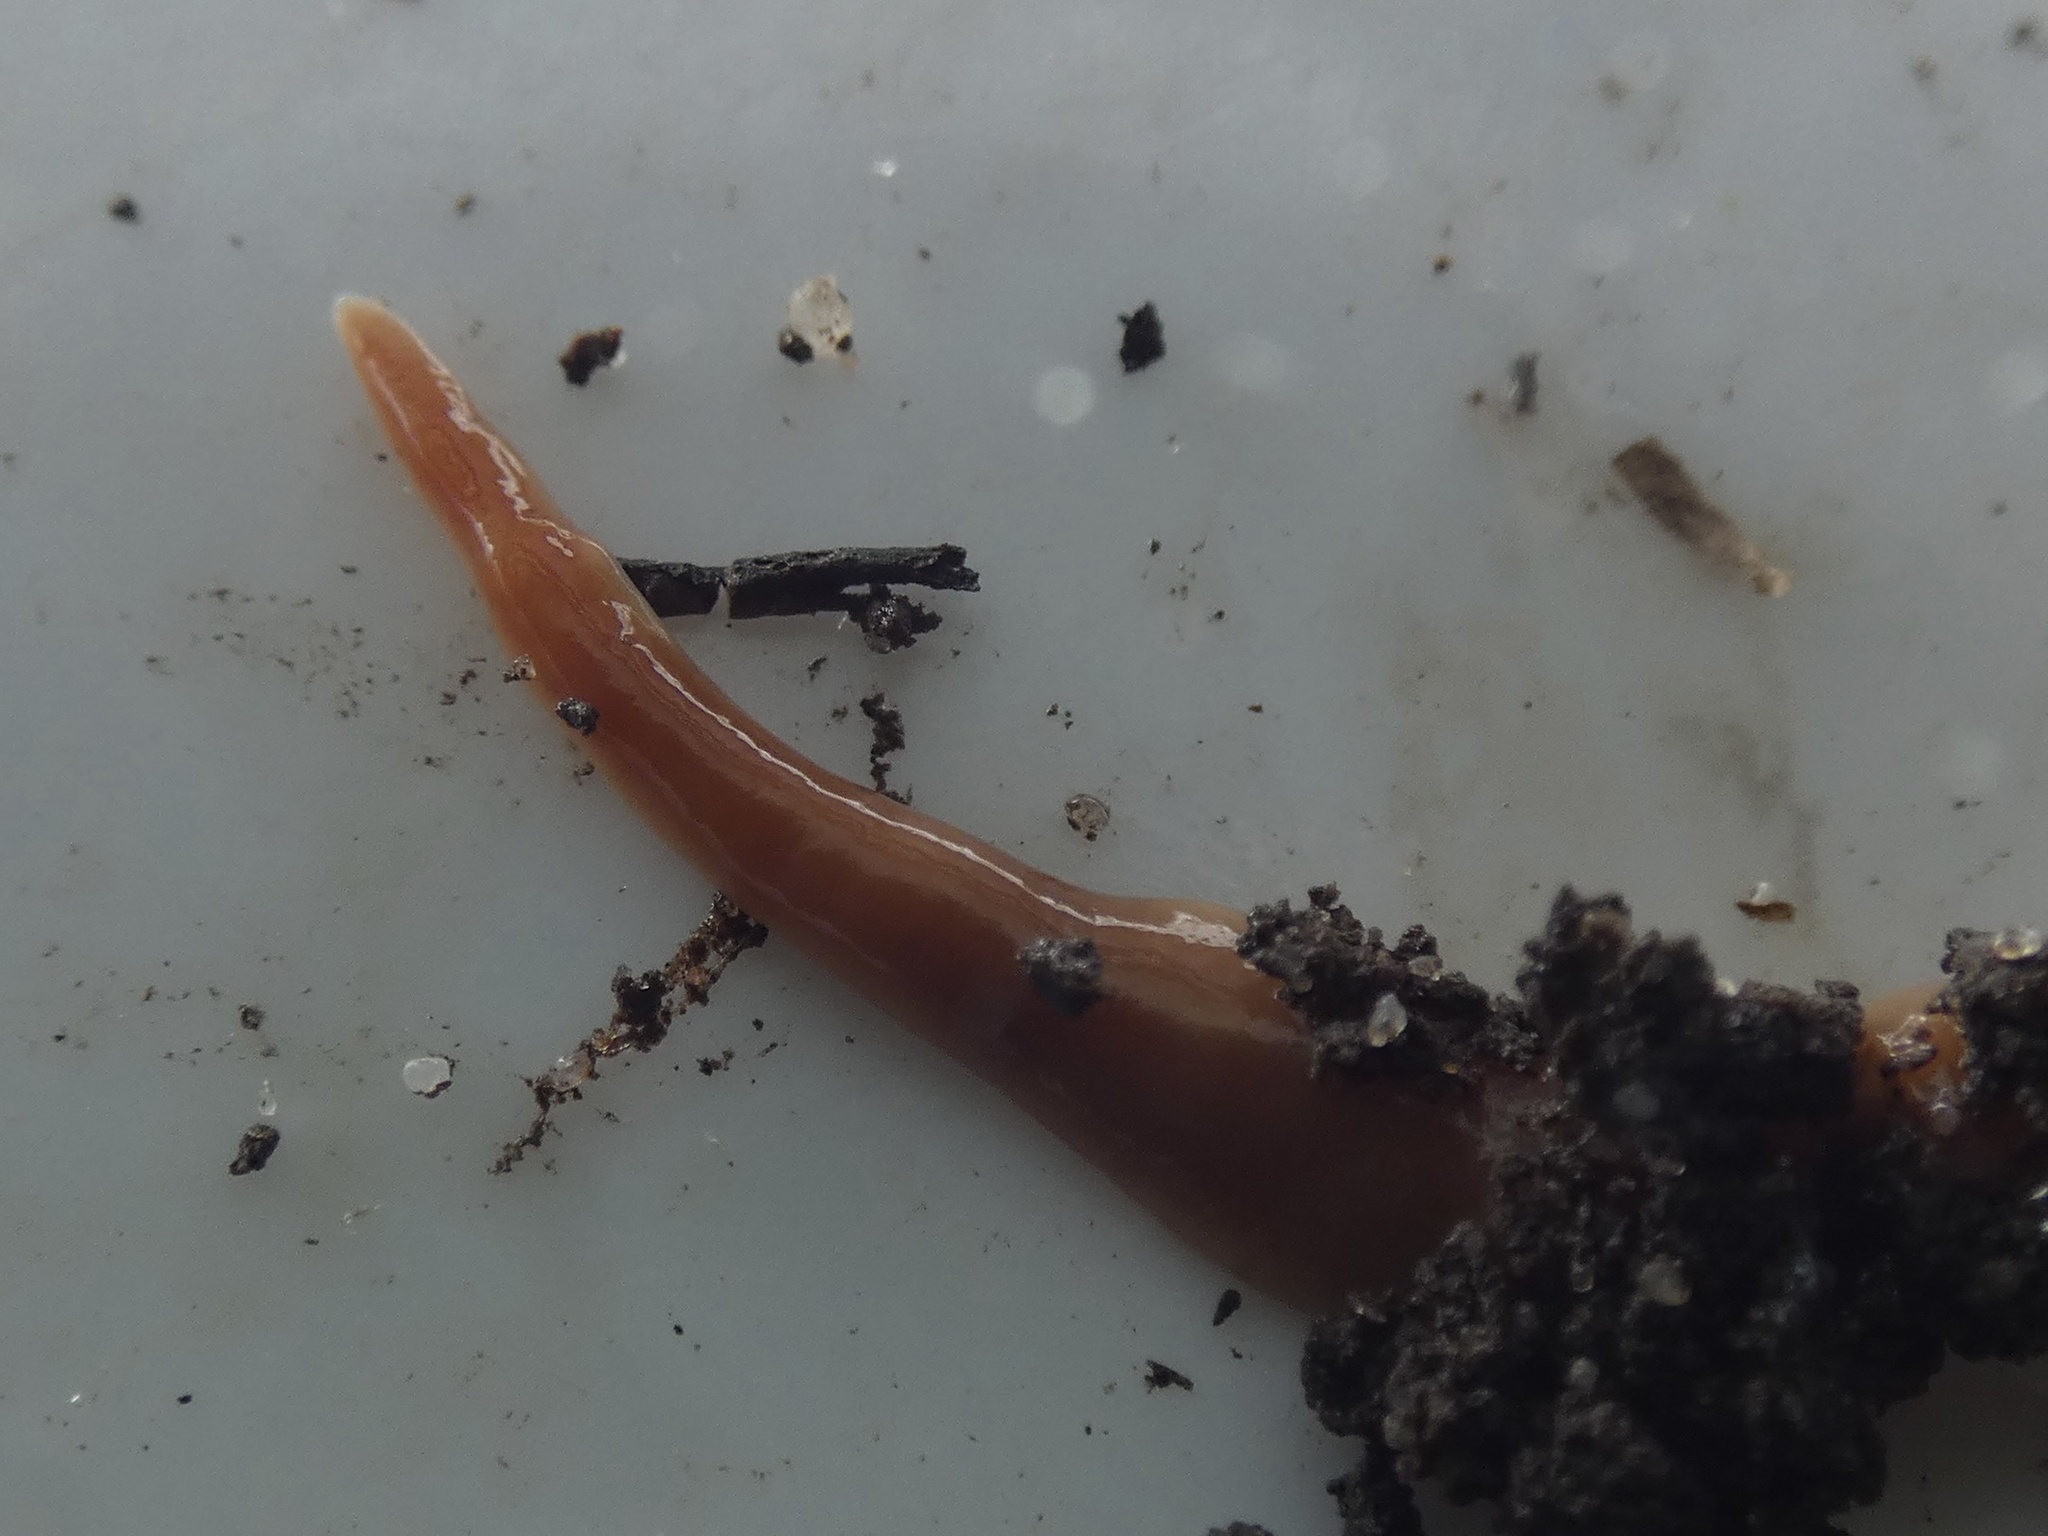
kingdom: Animalia
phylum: Platyhelminthes
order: Tricladida
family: Geoplanidae
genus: Australoplana
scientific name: Australoplana sanguinea
